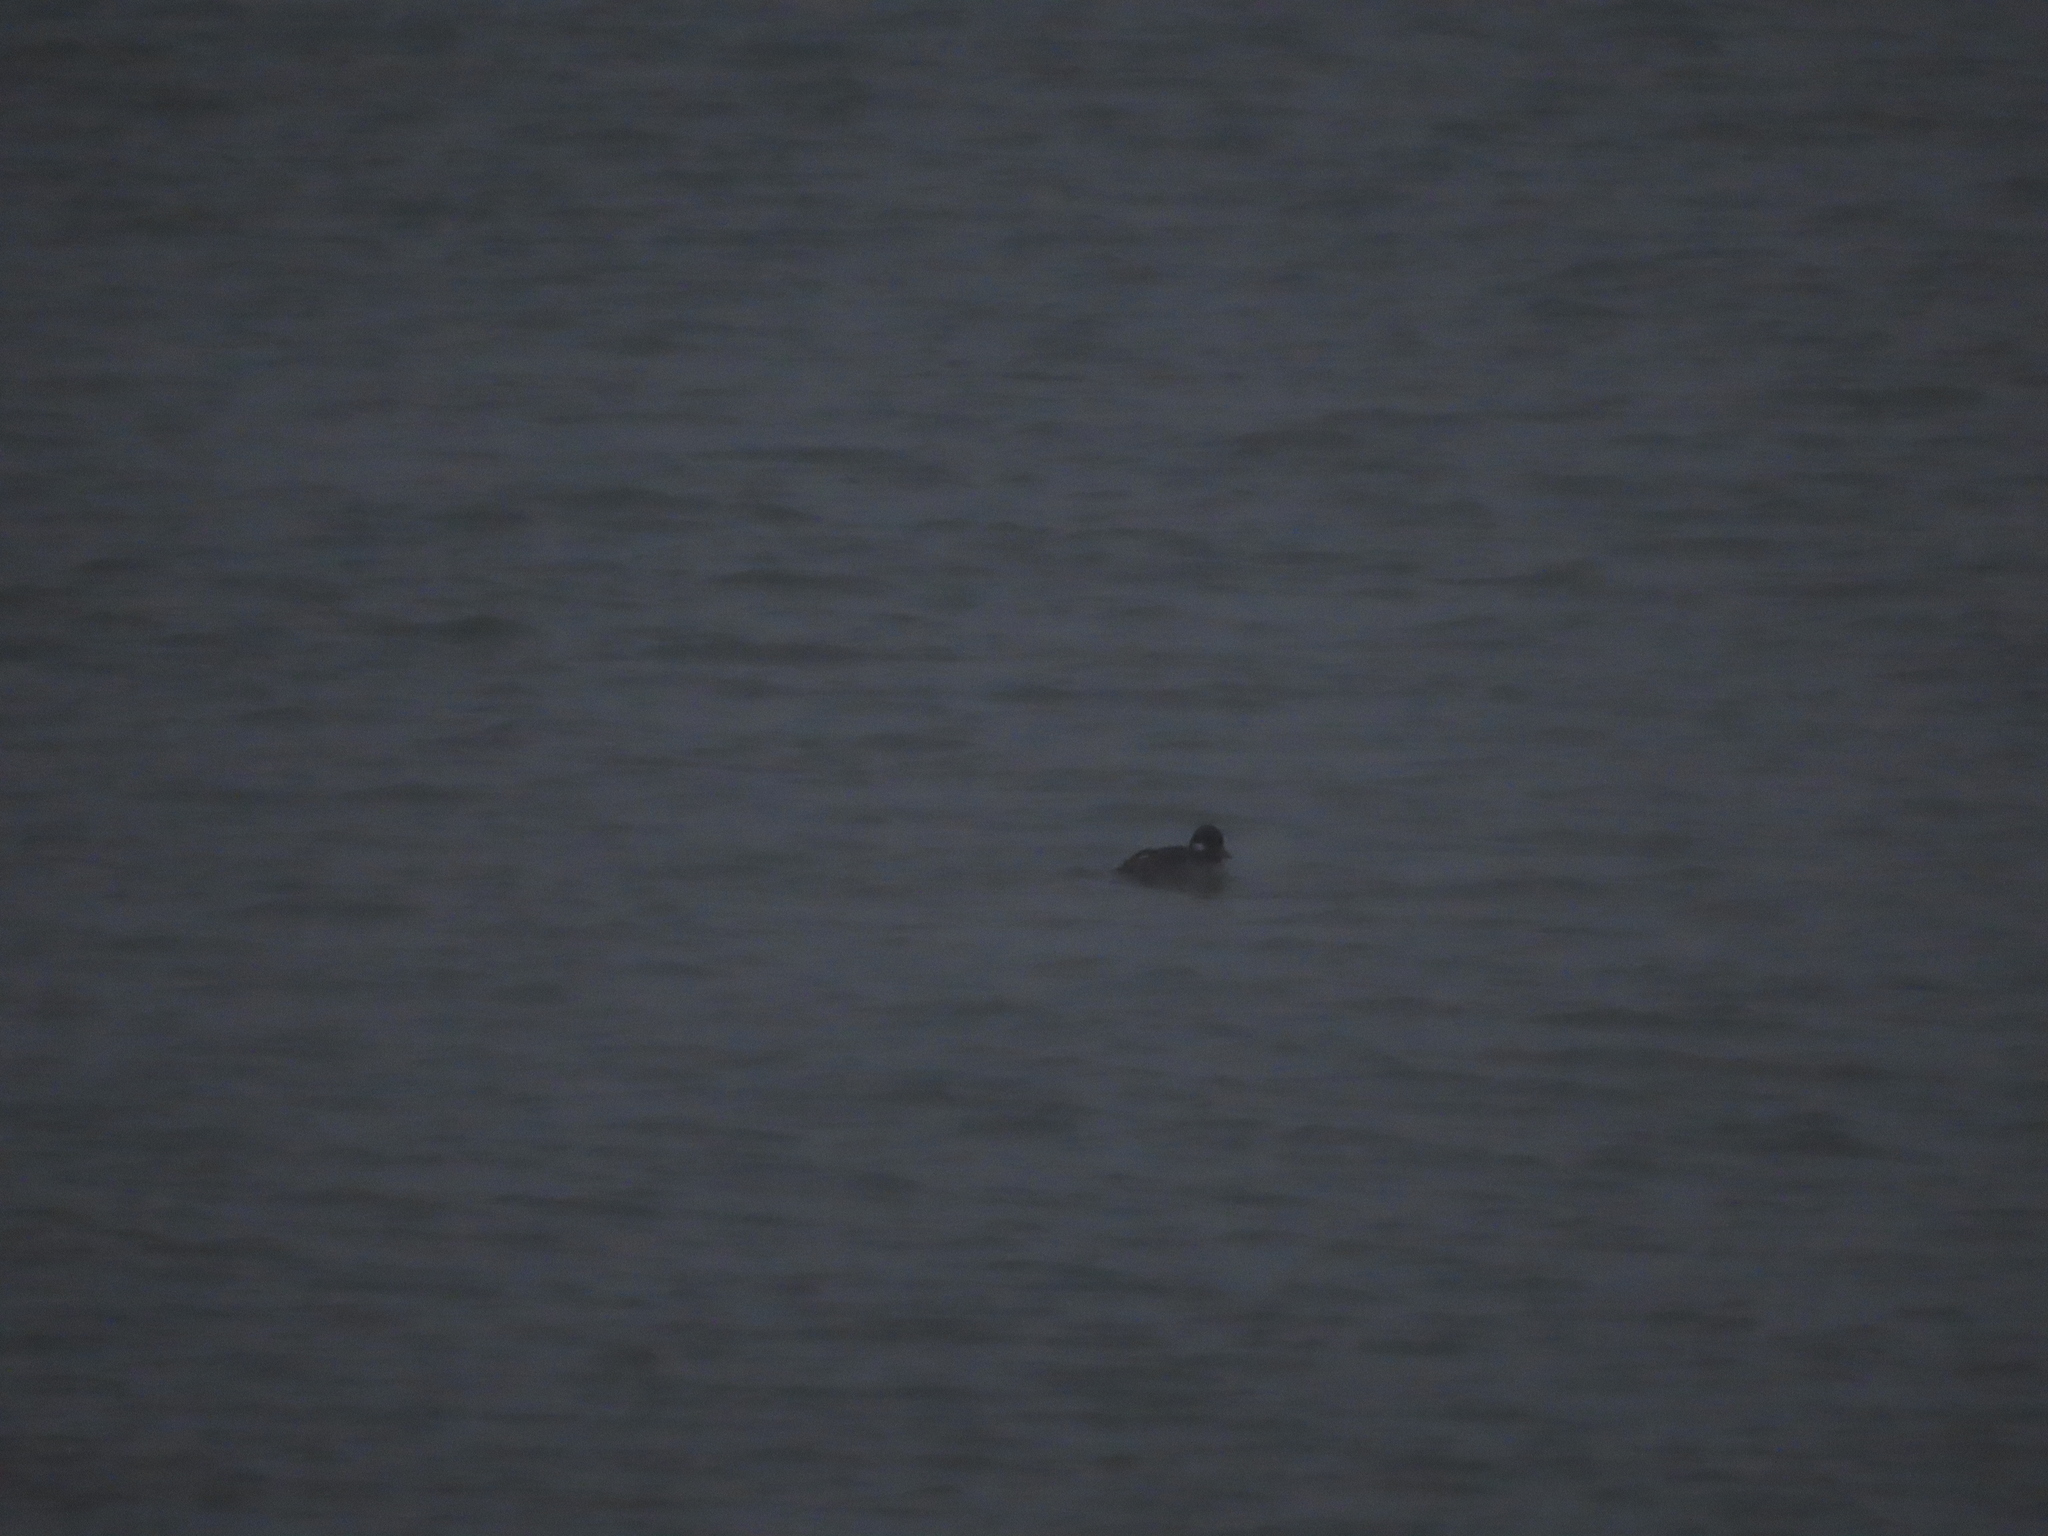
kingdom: Animalia
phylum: Chordata
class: Aves
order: Anseriformes
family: Anatidae
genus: Bucephala
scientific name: Bucephala albeola
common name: Bufflehead
